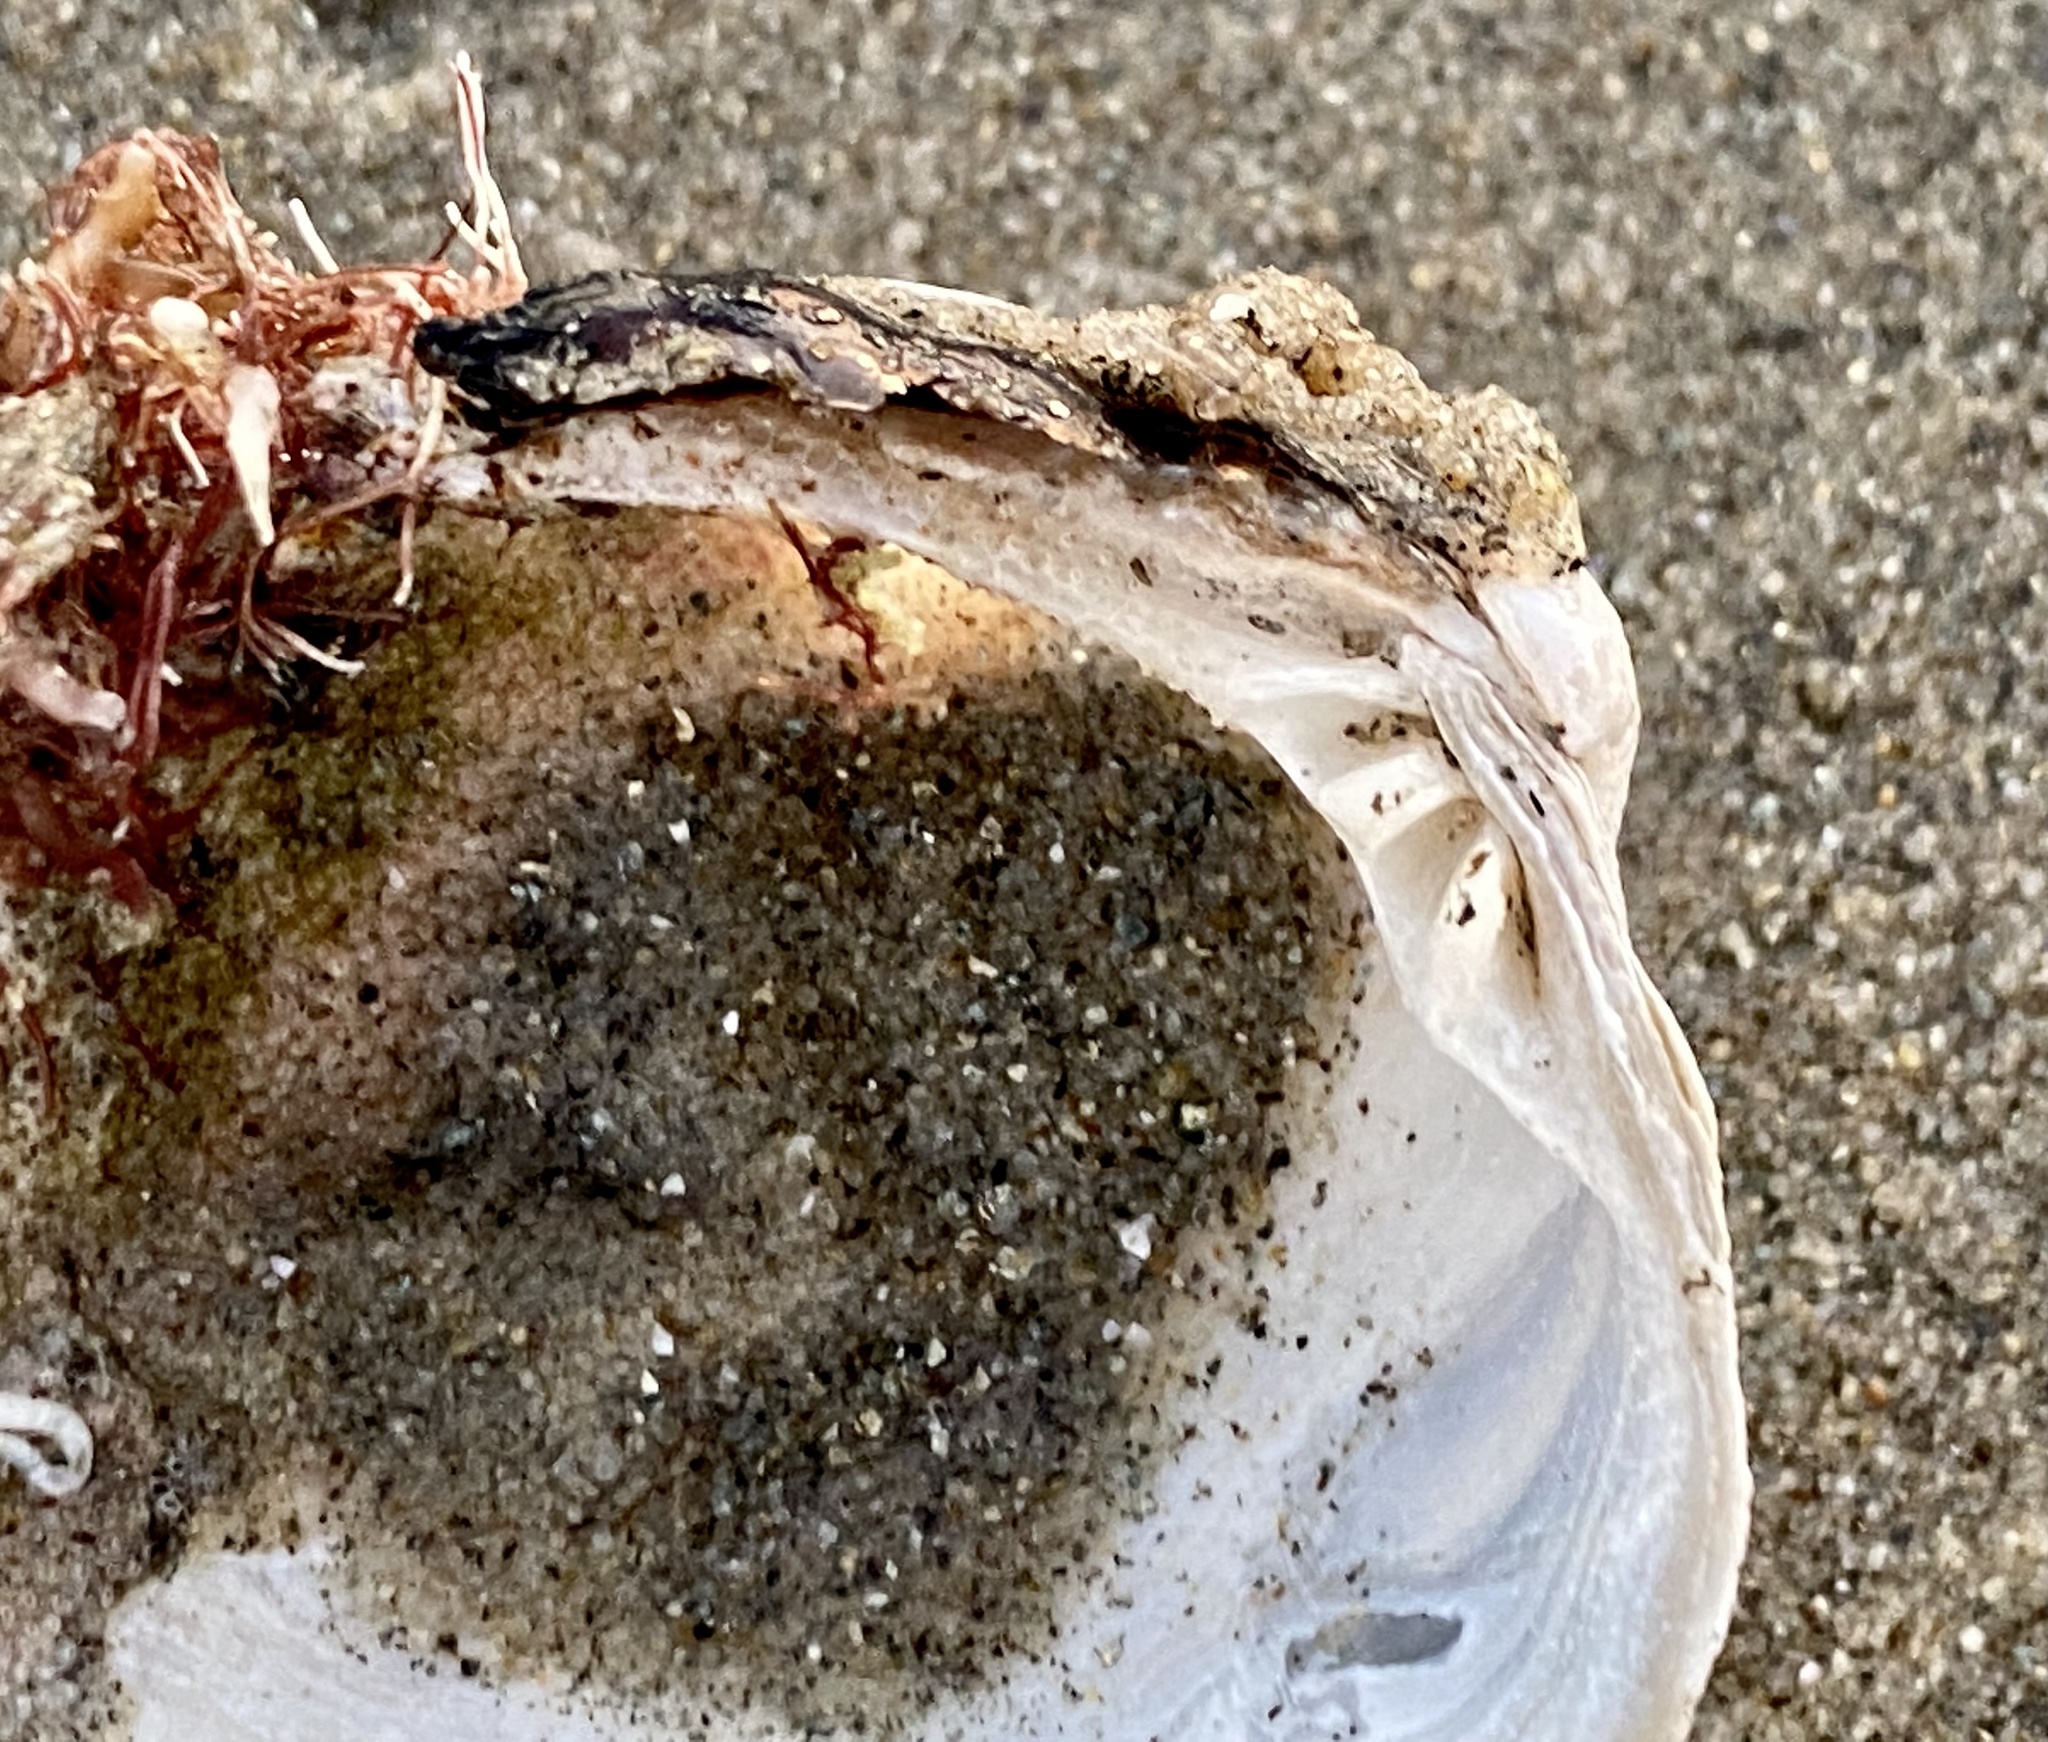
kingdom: Animalia
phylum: Mollusca
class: Bivalvia
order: Venerida
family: Veneridae
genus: Leukoma
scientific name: Leukoma staminea
